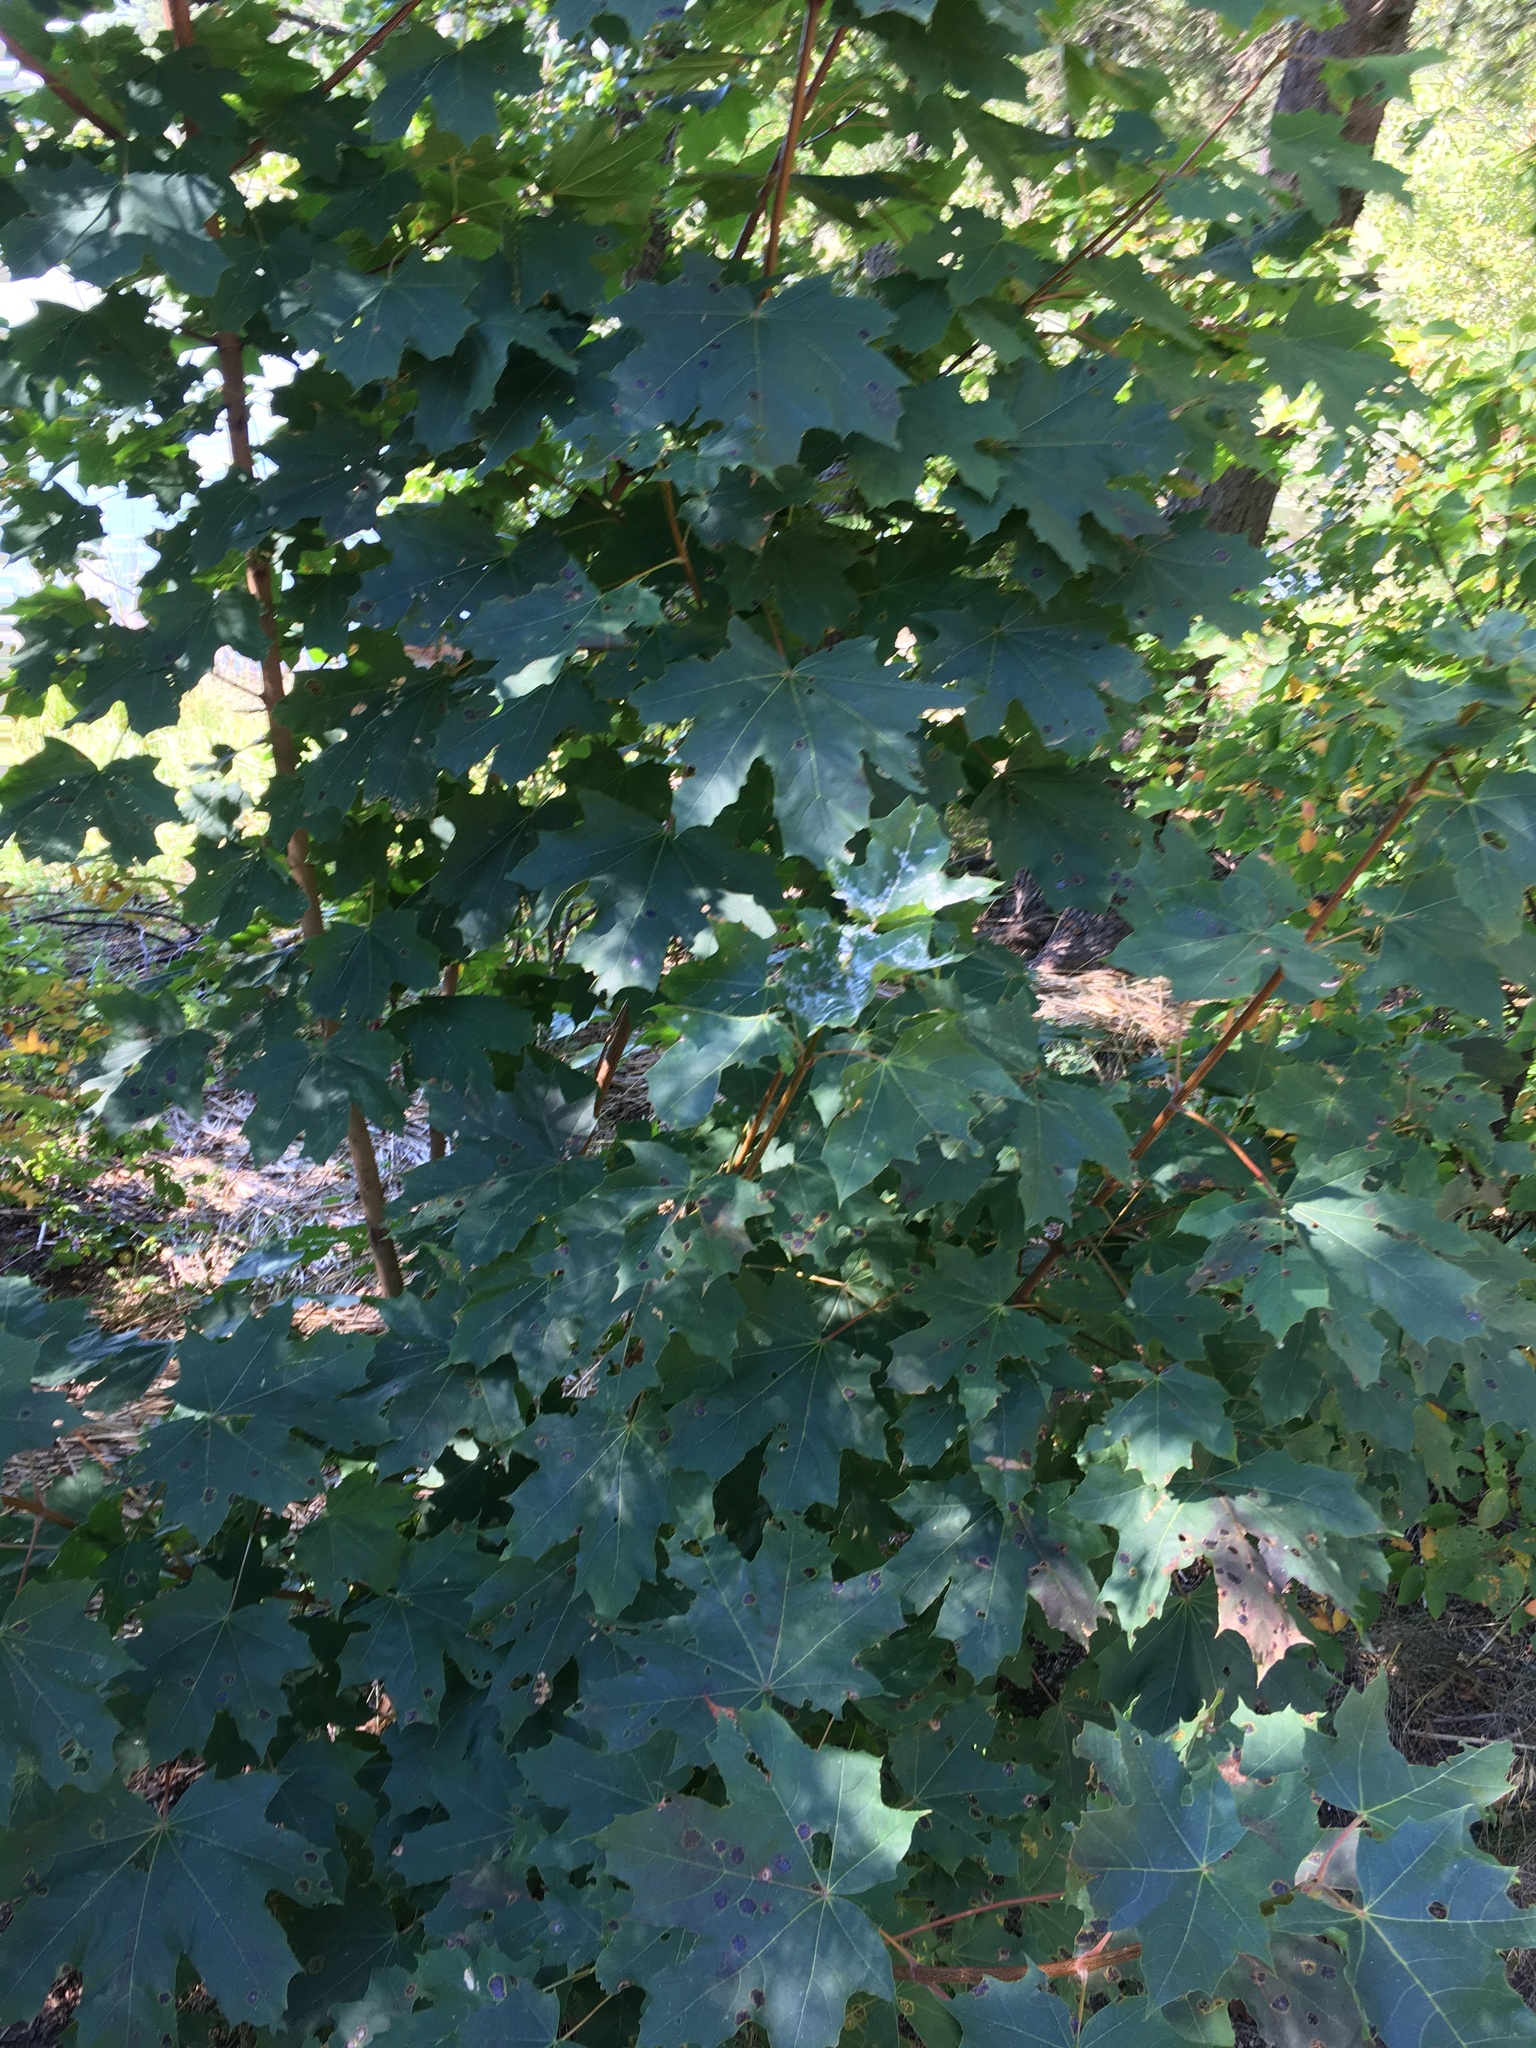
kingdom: Plantae
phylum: Tracheophyta
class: Magnoliopsida
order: Sapindales
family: Sapindaceae
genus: Acer
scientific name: Acer platanoides
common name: Norway maple
